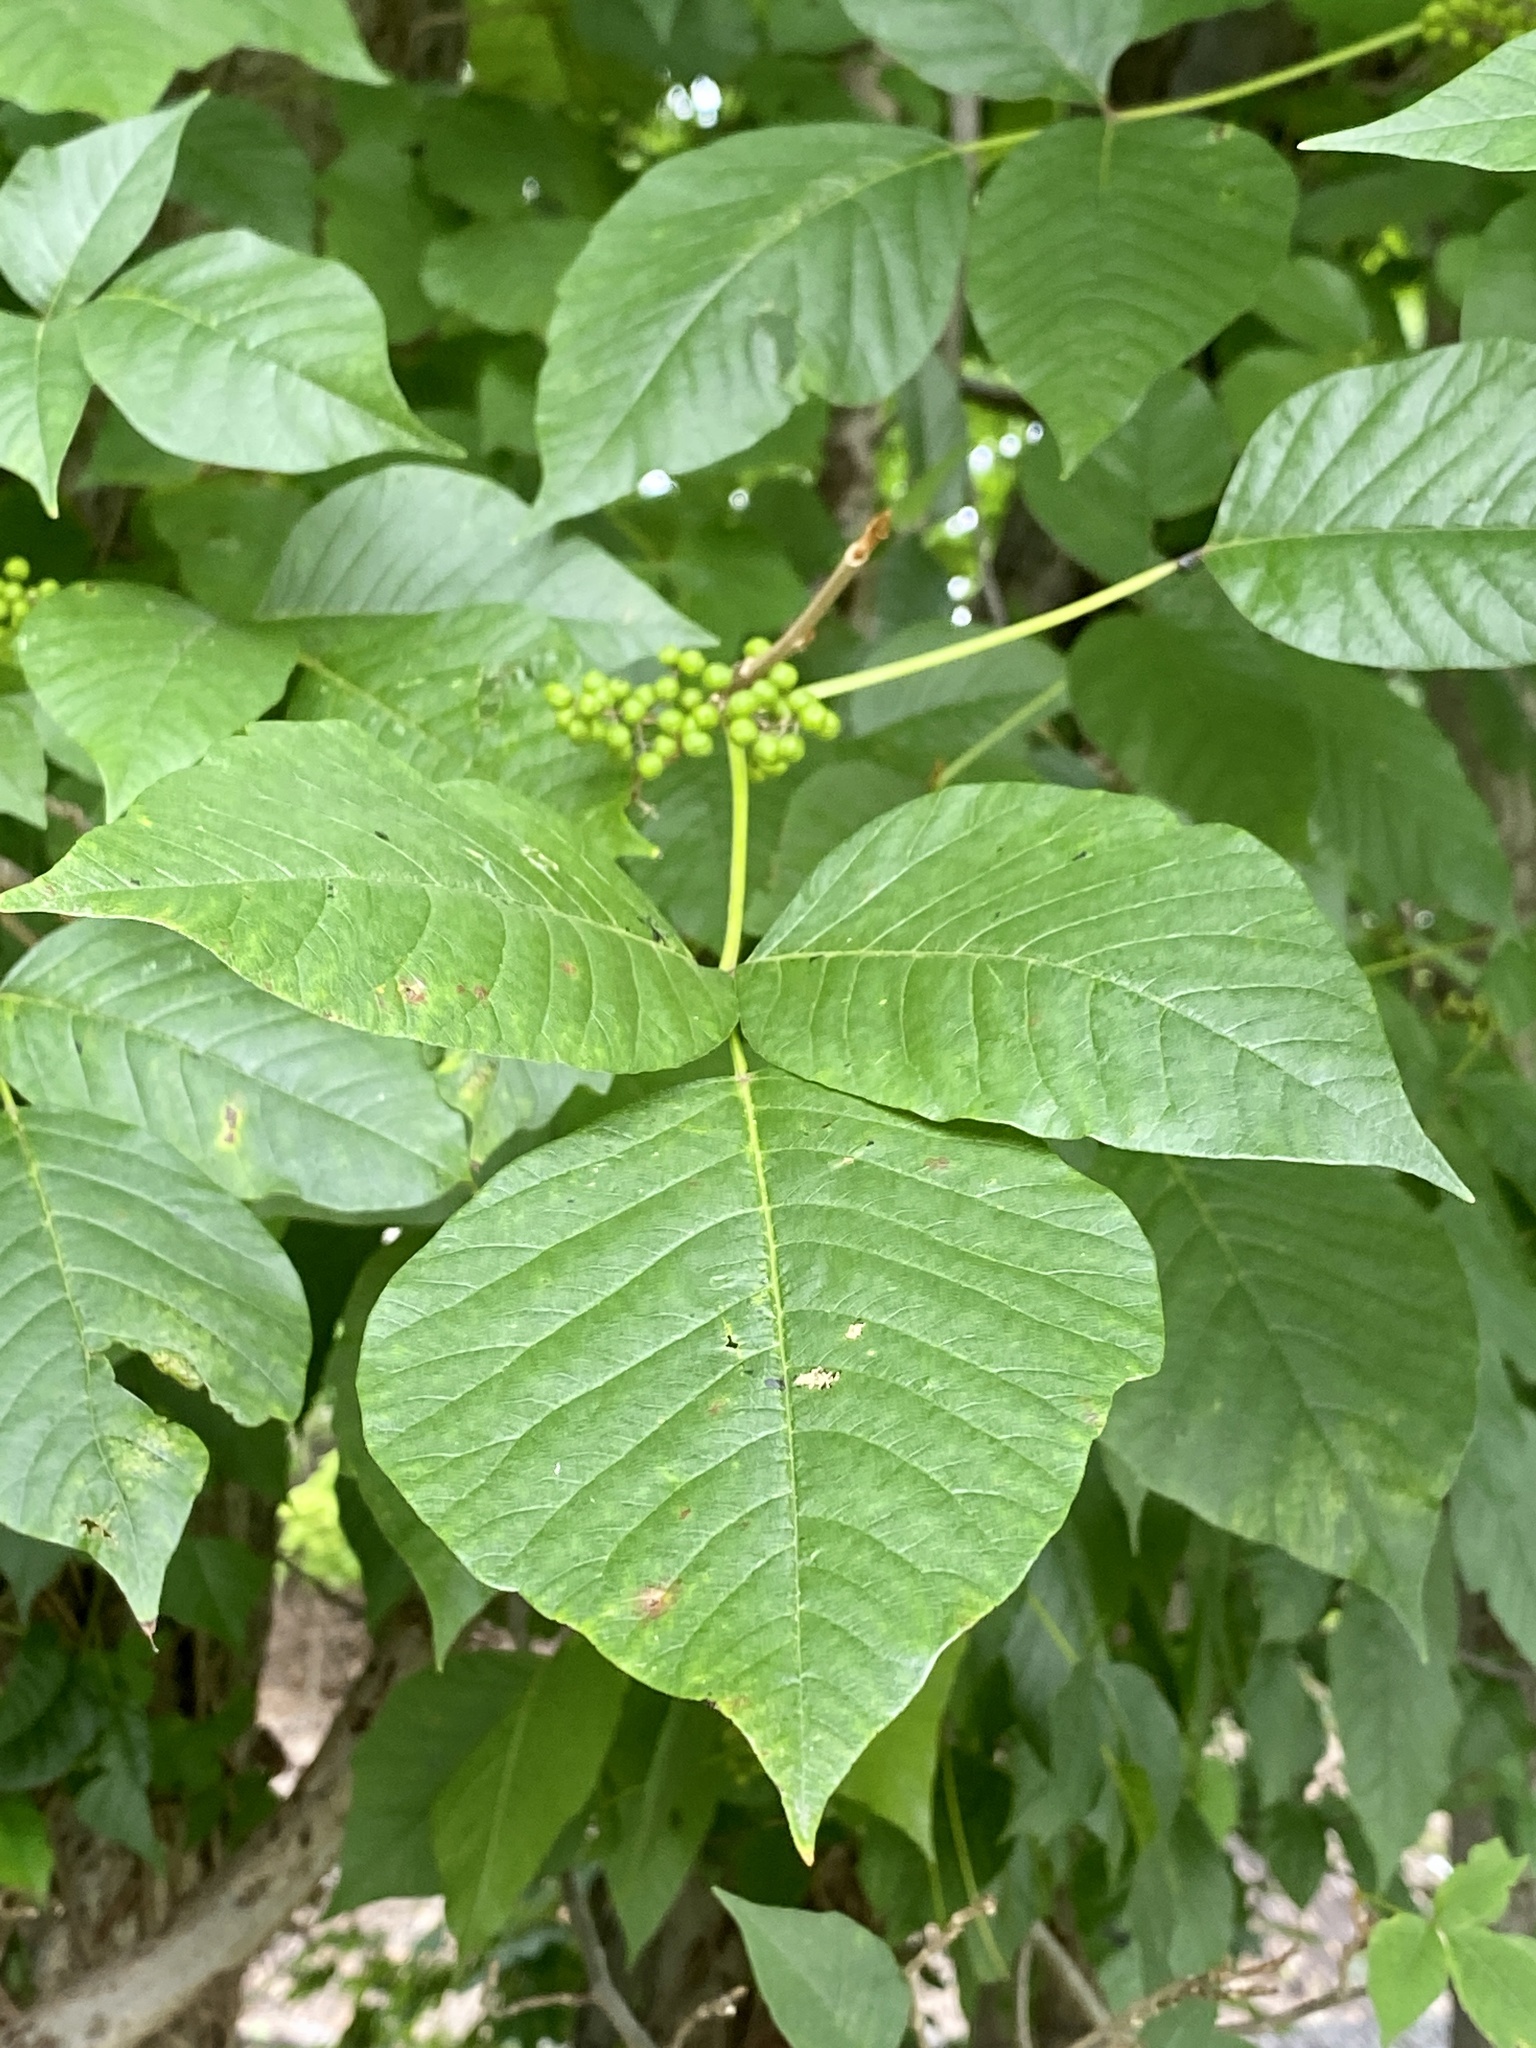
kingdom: Plantae
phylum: Tracheophyta
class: Magnoliopsida
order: Sapindales
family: Anacardiaceae
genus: Toxicodendron
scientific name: Toxicodendron radicans
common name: Poison ivy
